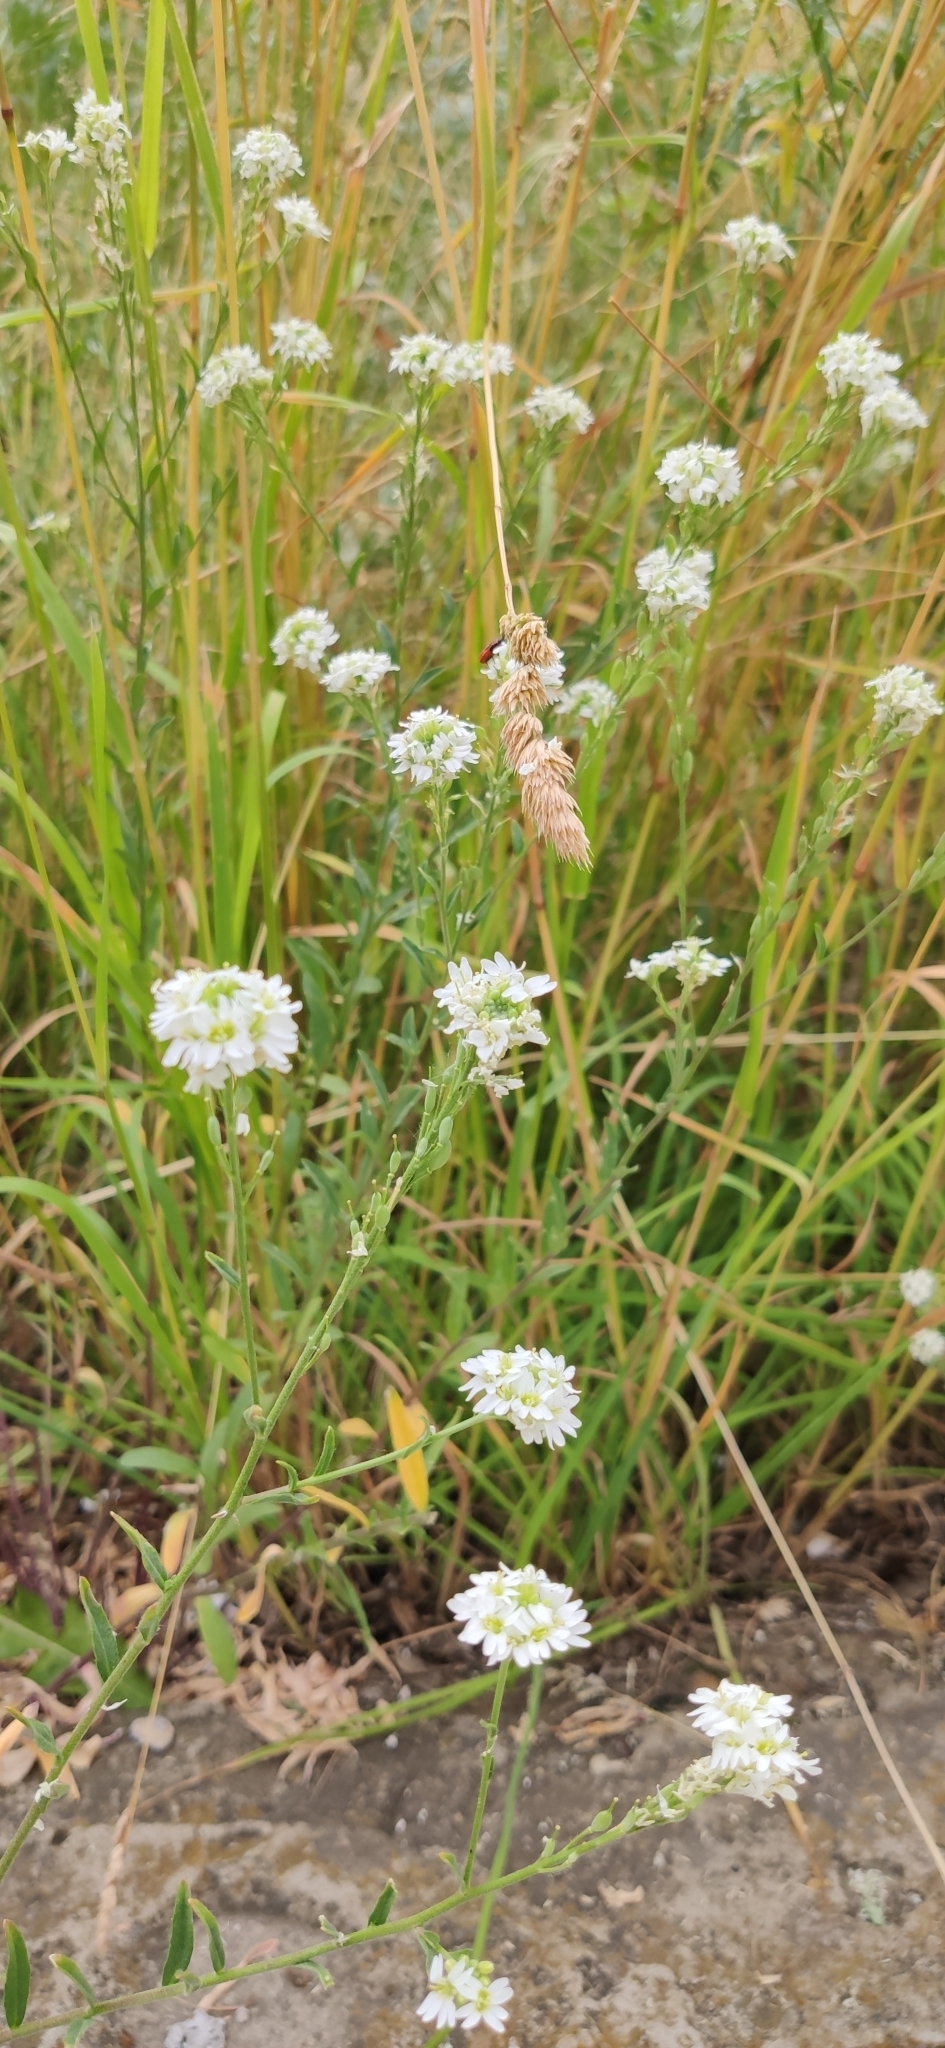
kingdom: Plantae
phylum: Tracheophyta
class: Magnoliopsida
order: Brassicales
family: Brassicaceae
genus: Berteroa
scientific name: Berteroa incana
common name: Hoary alison
